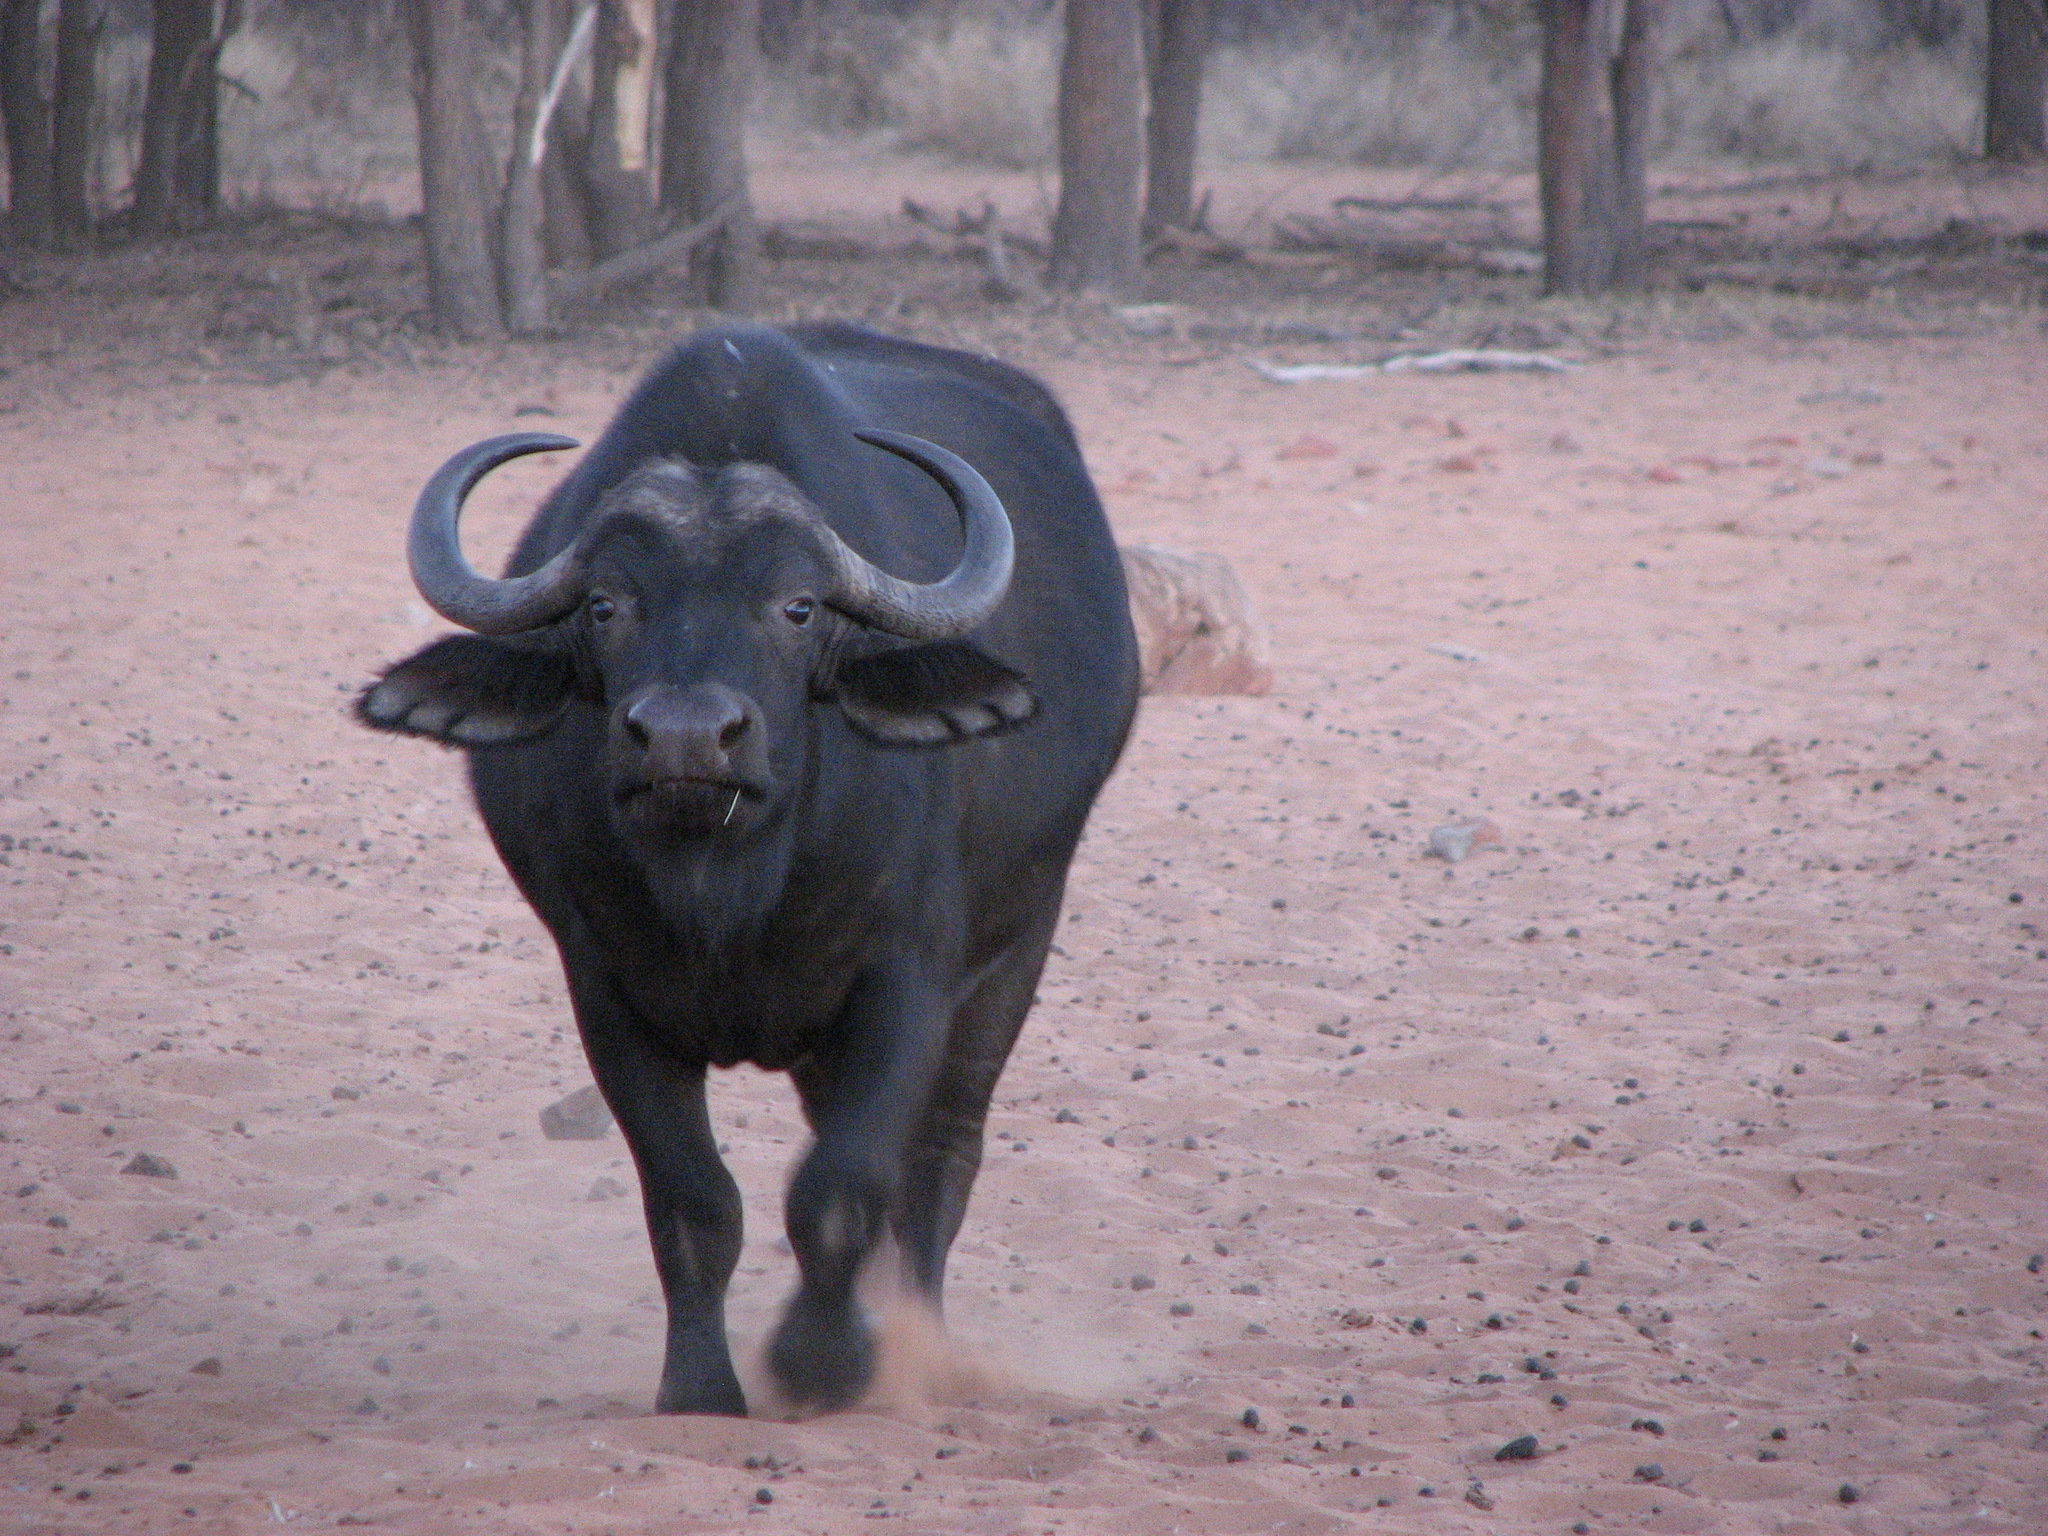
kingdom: Animalia
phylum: Chordata
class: Mammalia
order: Artiodactyla
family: Bovidae
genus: Syncerus
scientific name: Syncerus caffer
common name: African buffalo
